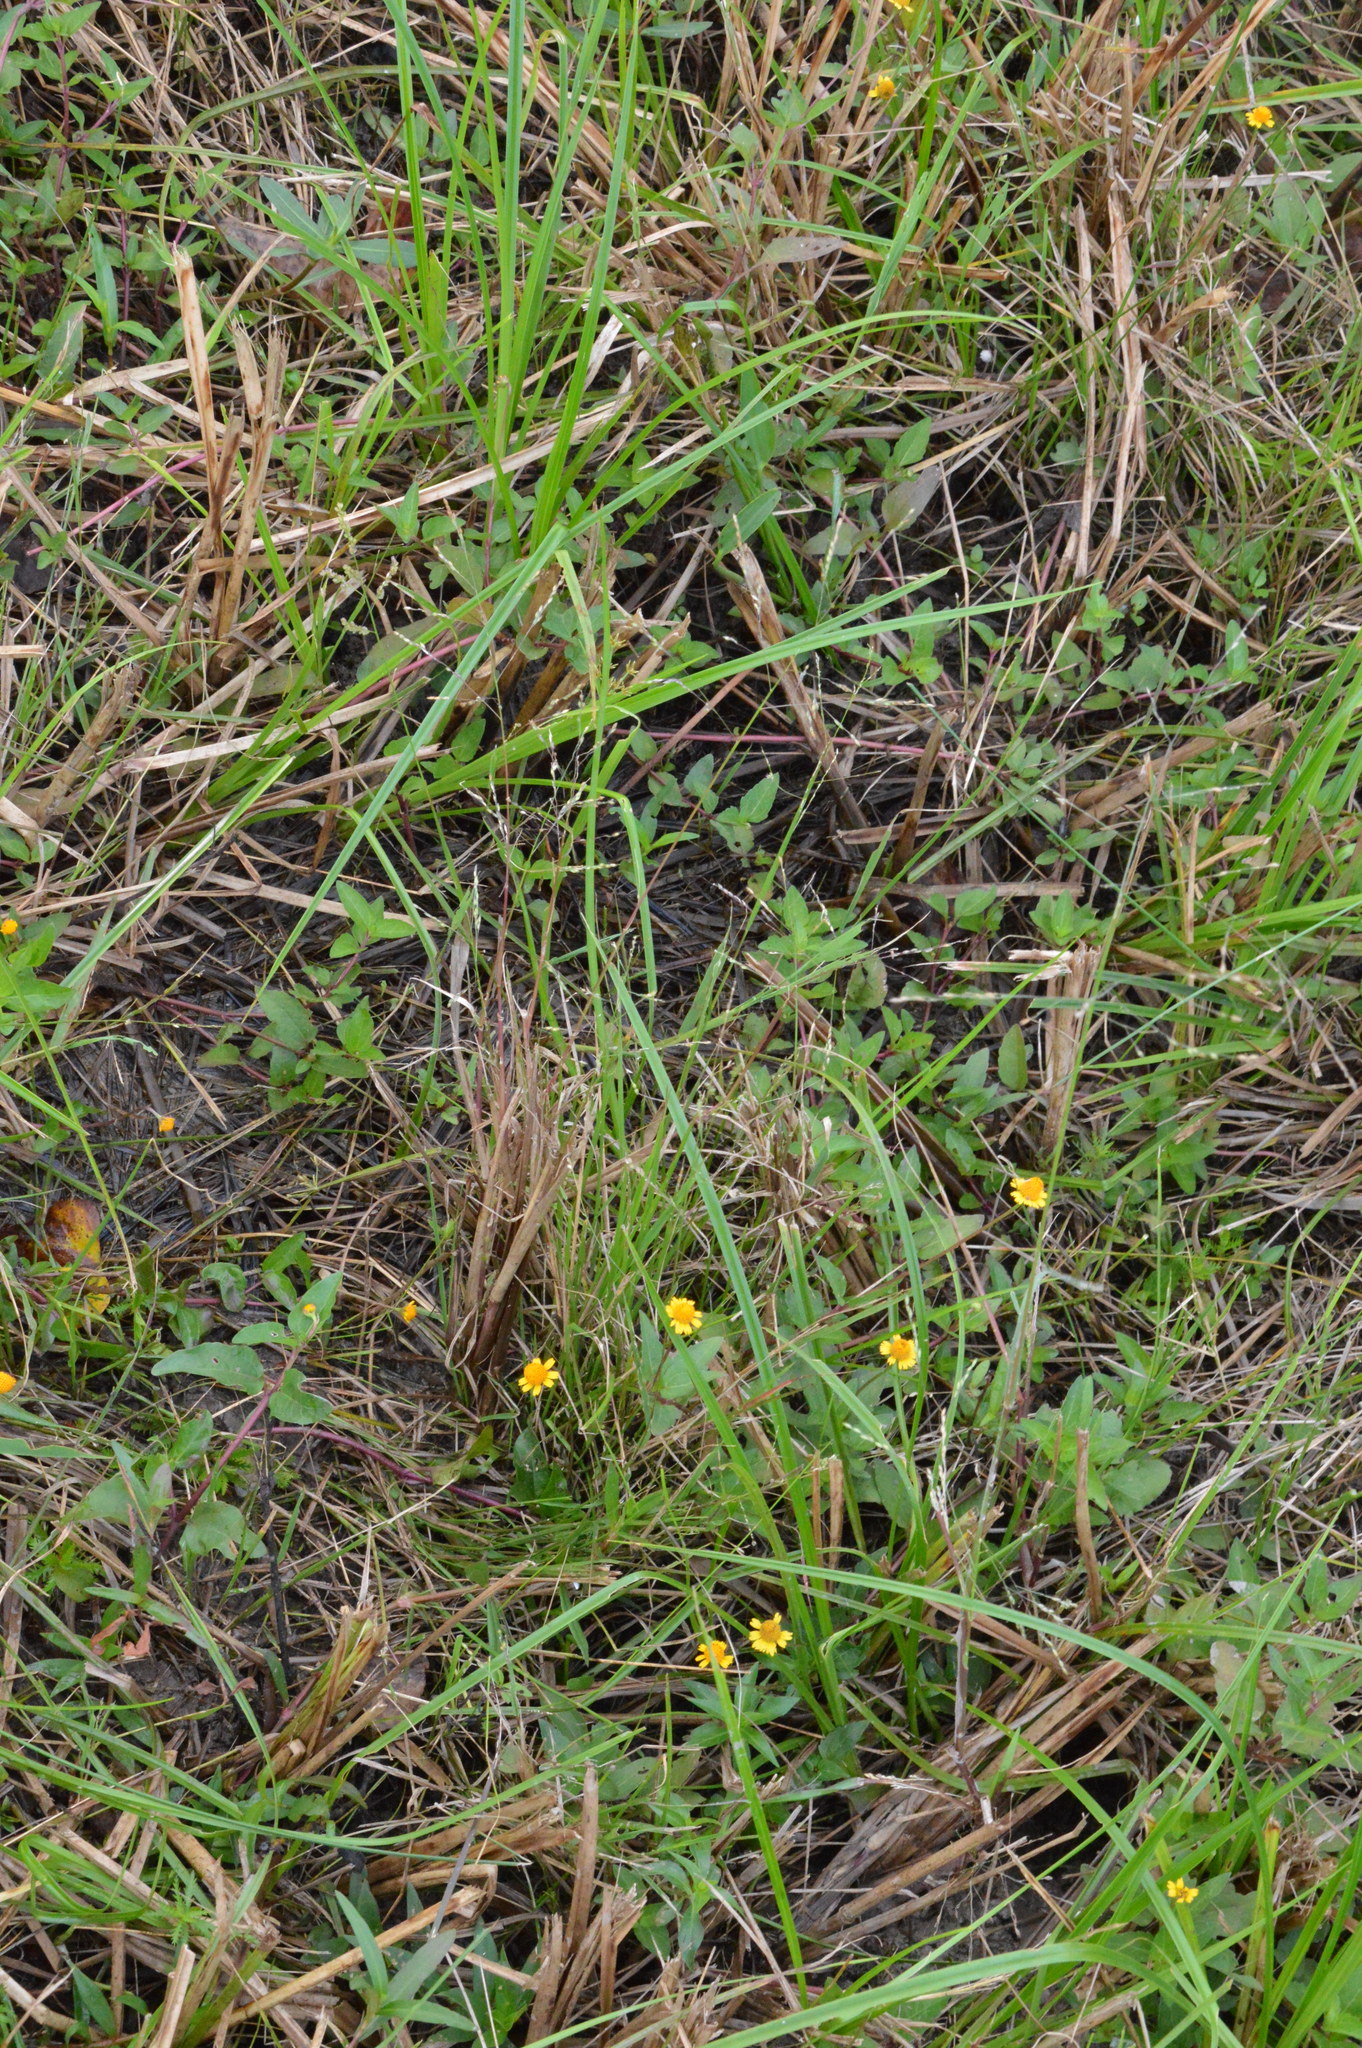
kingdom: Plantae
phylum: Tracheophyta
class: Liliopsida
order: Poales
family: Poaceae
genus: Panicum
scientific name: Panicum dichotomiflorum
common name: Autumn millet
